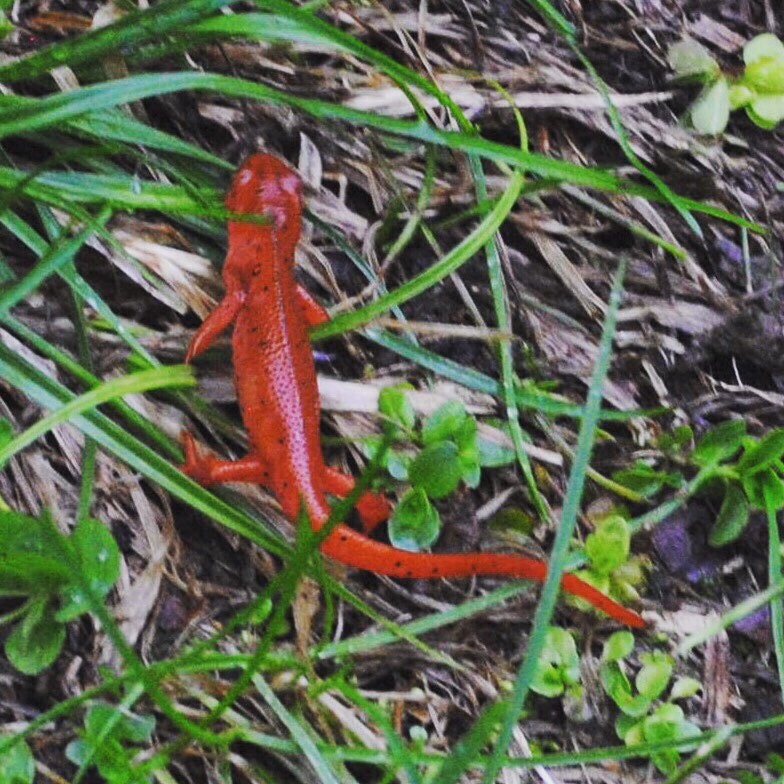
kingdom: Animalia
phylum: Chordata
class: Amphibia
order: Caudata
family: Salamandridae
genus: Notophthalmus
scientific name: Notophthalmus viridescens
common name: Eastern newt
